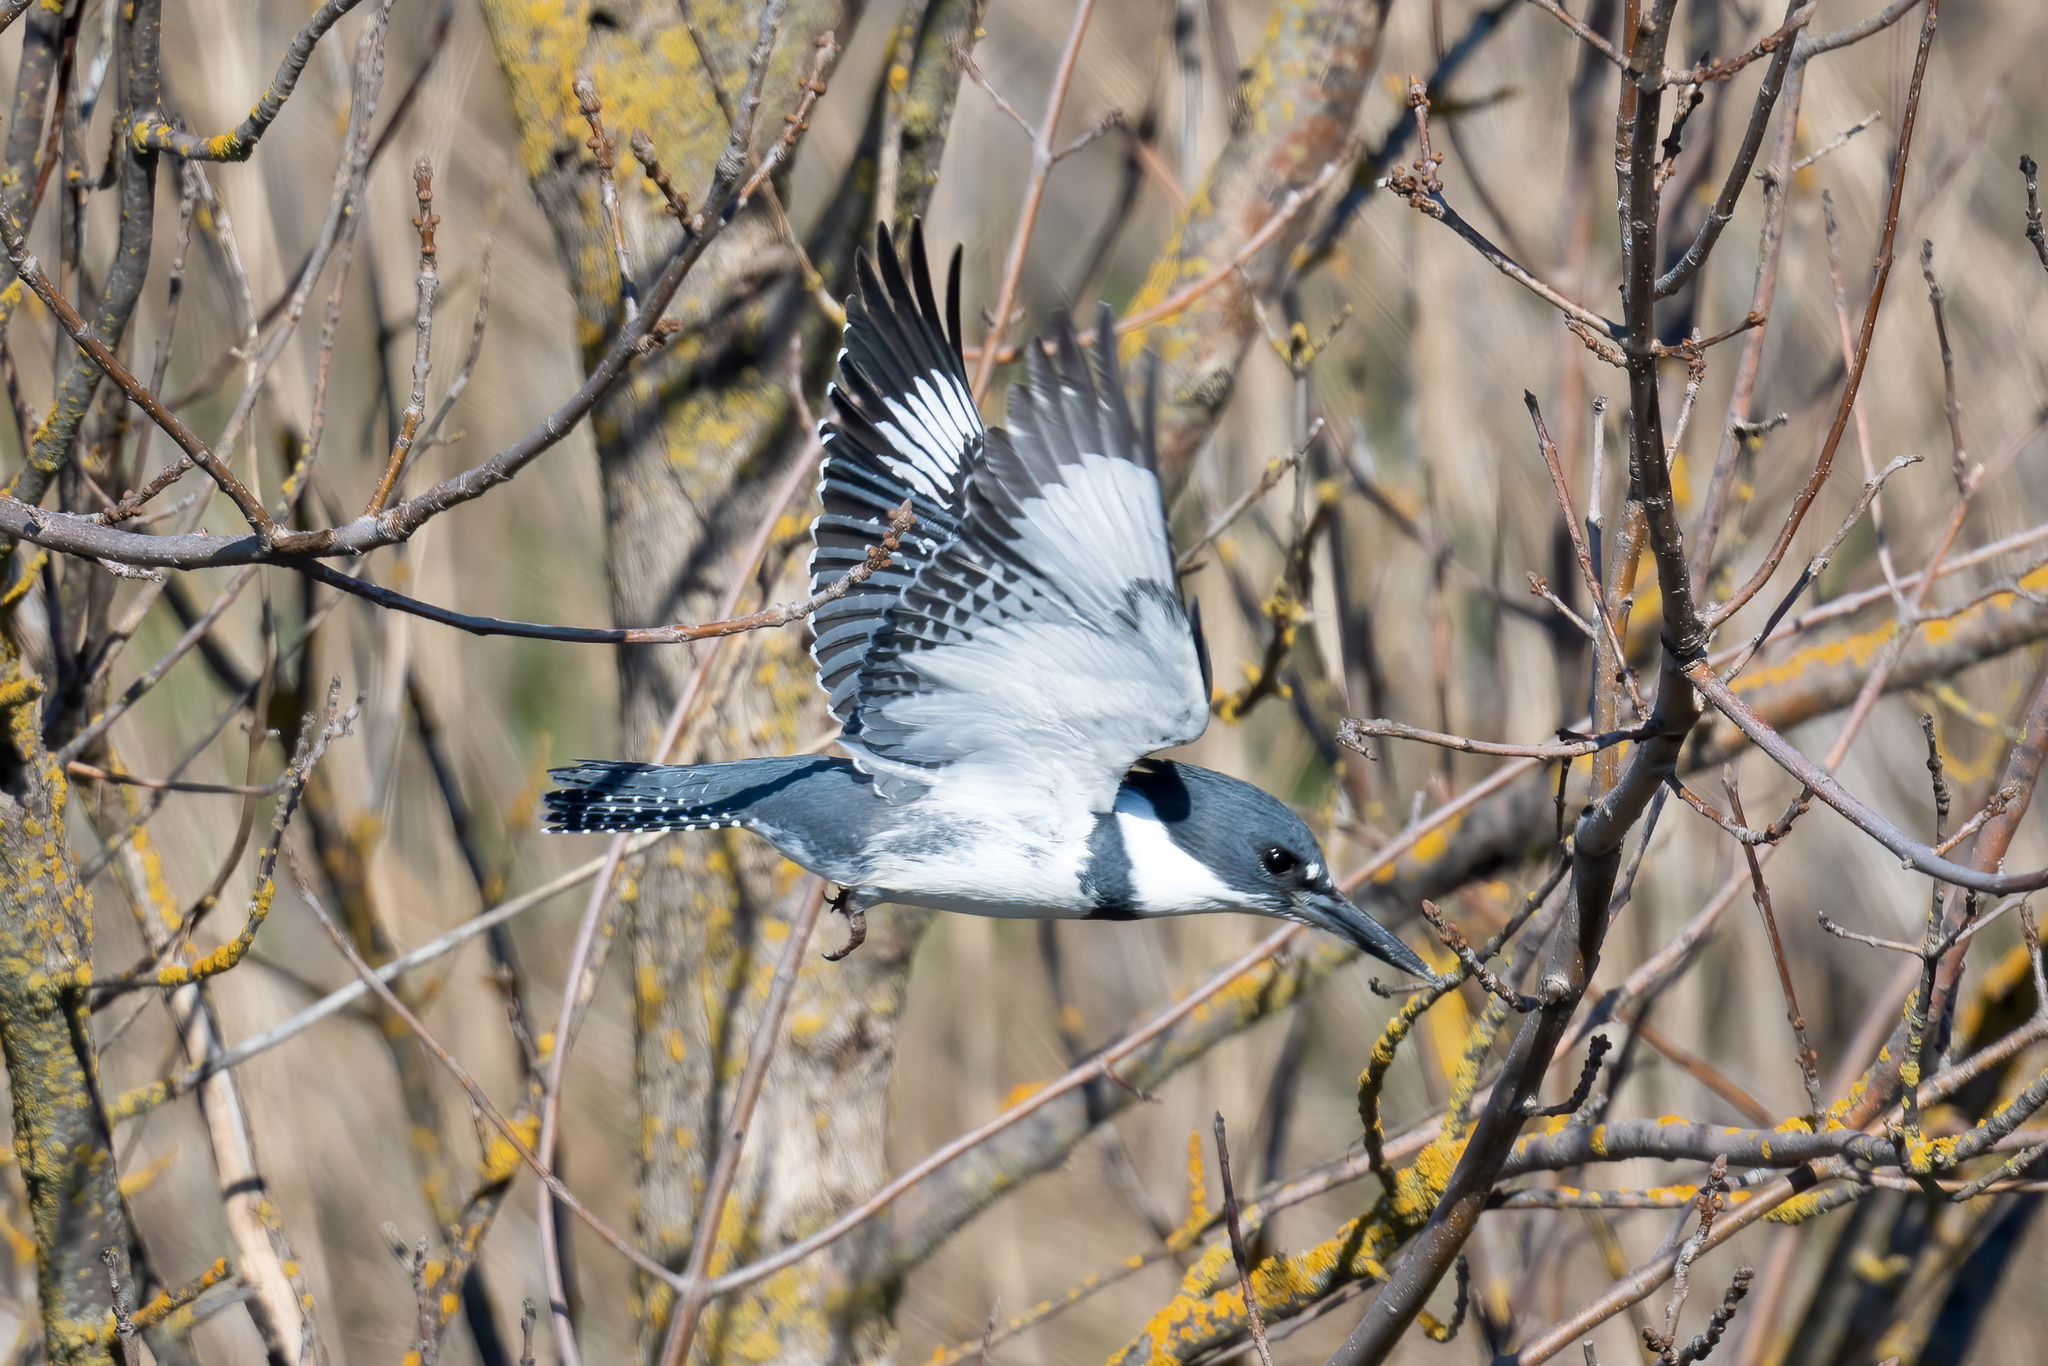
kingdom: Animalia
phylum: Chordata
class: Aves
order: Coraciiformes
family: Alcedinidae
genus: Megaceryle
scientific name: Megaceryle alcyon
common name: Belted kingfisher
